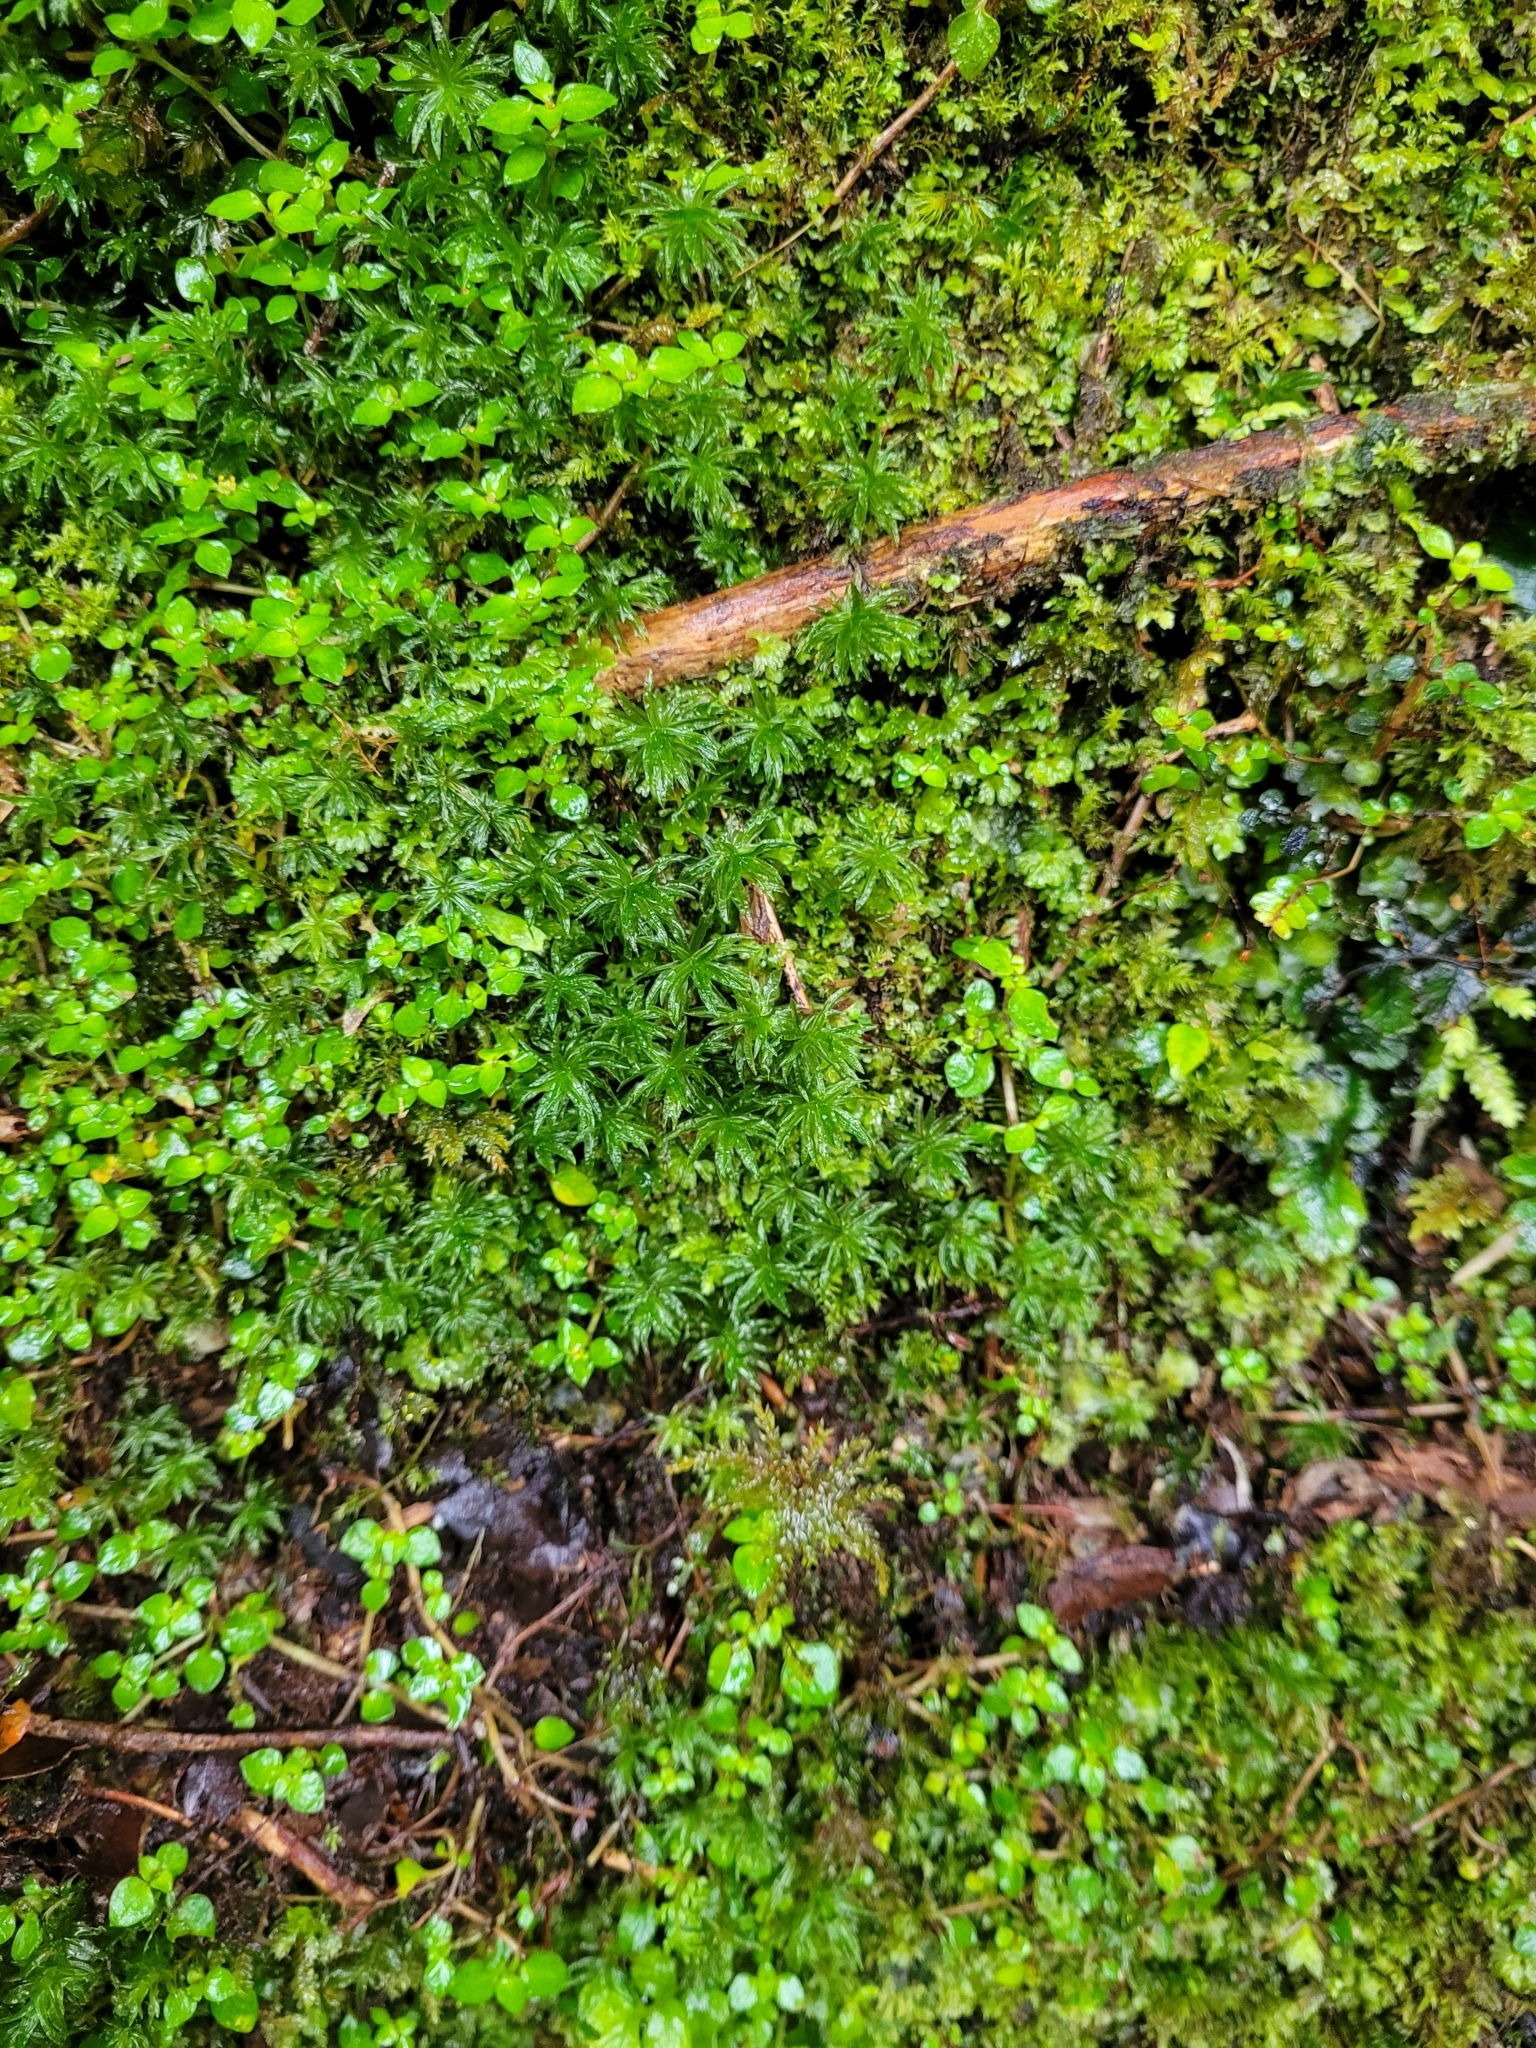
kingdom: Plantae
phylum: Bryophyta
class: Polytrichopsida
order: Polytrichales
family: Polytrichaceae
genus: Atrichum
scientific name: Atrichum androgynum
